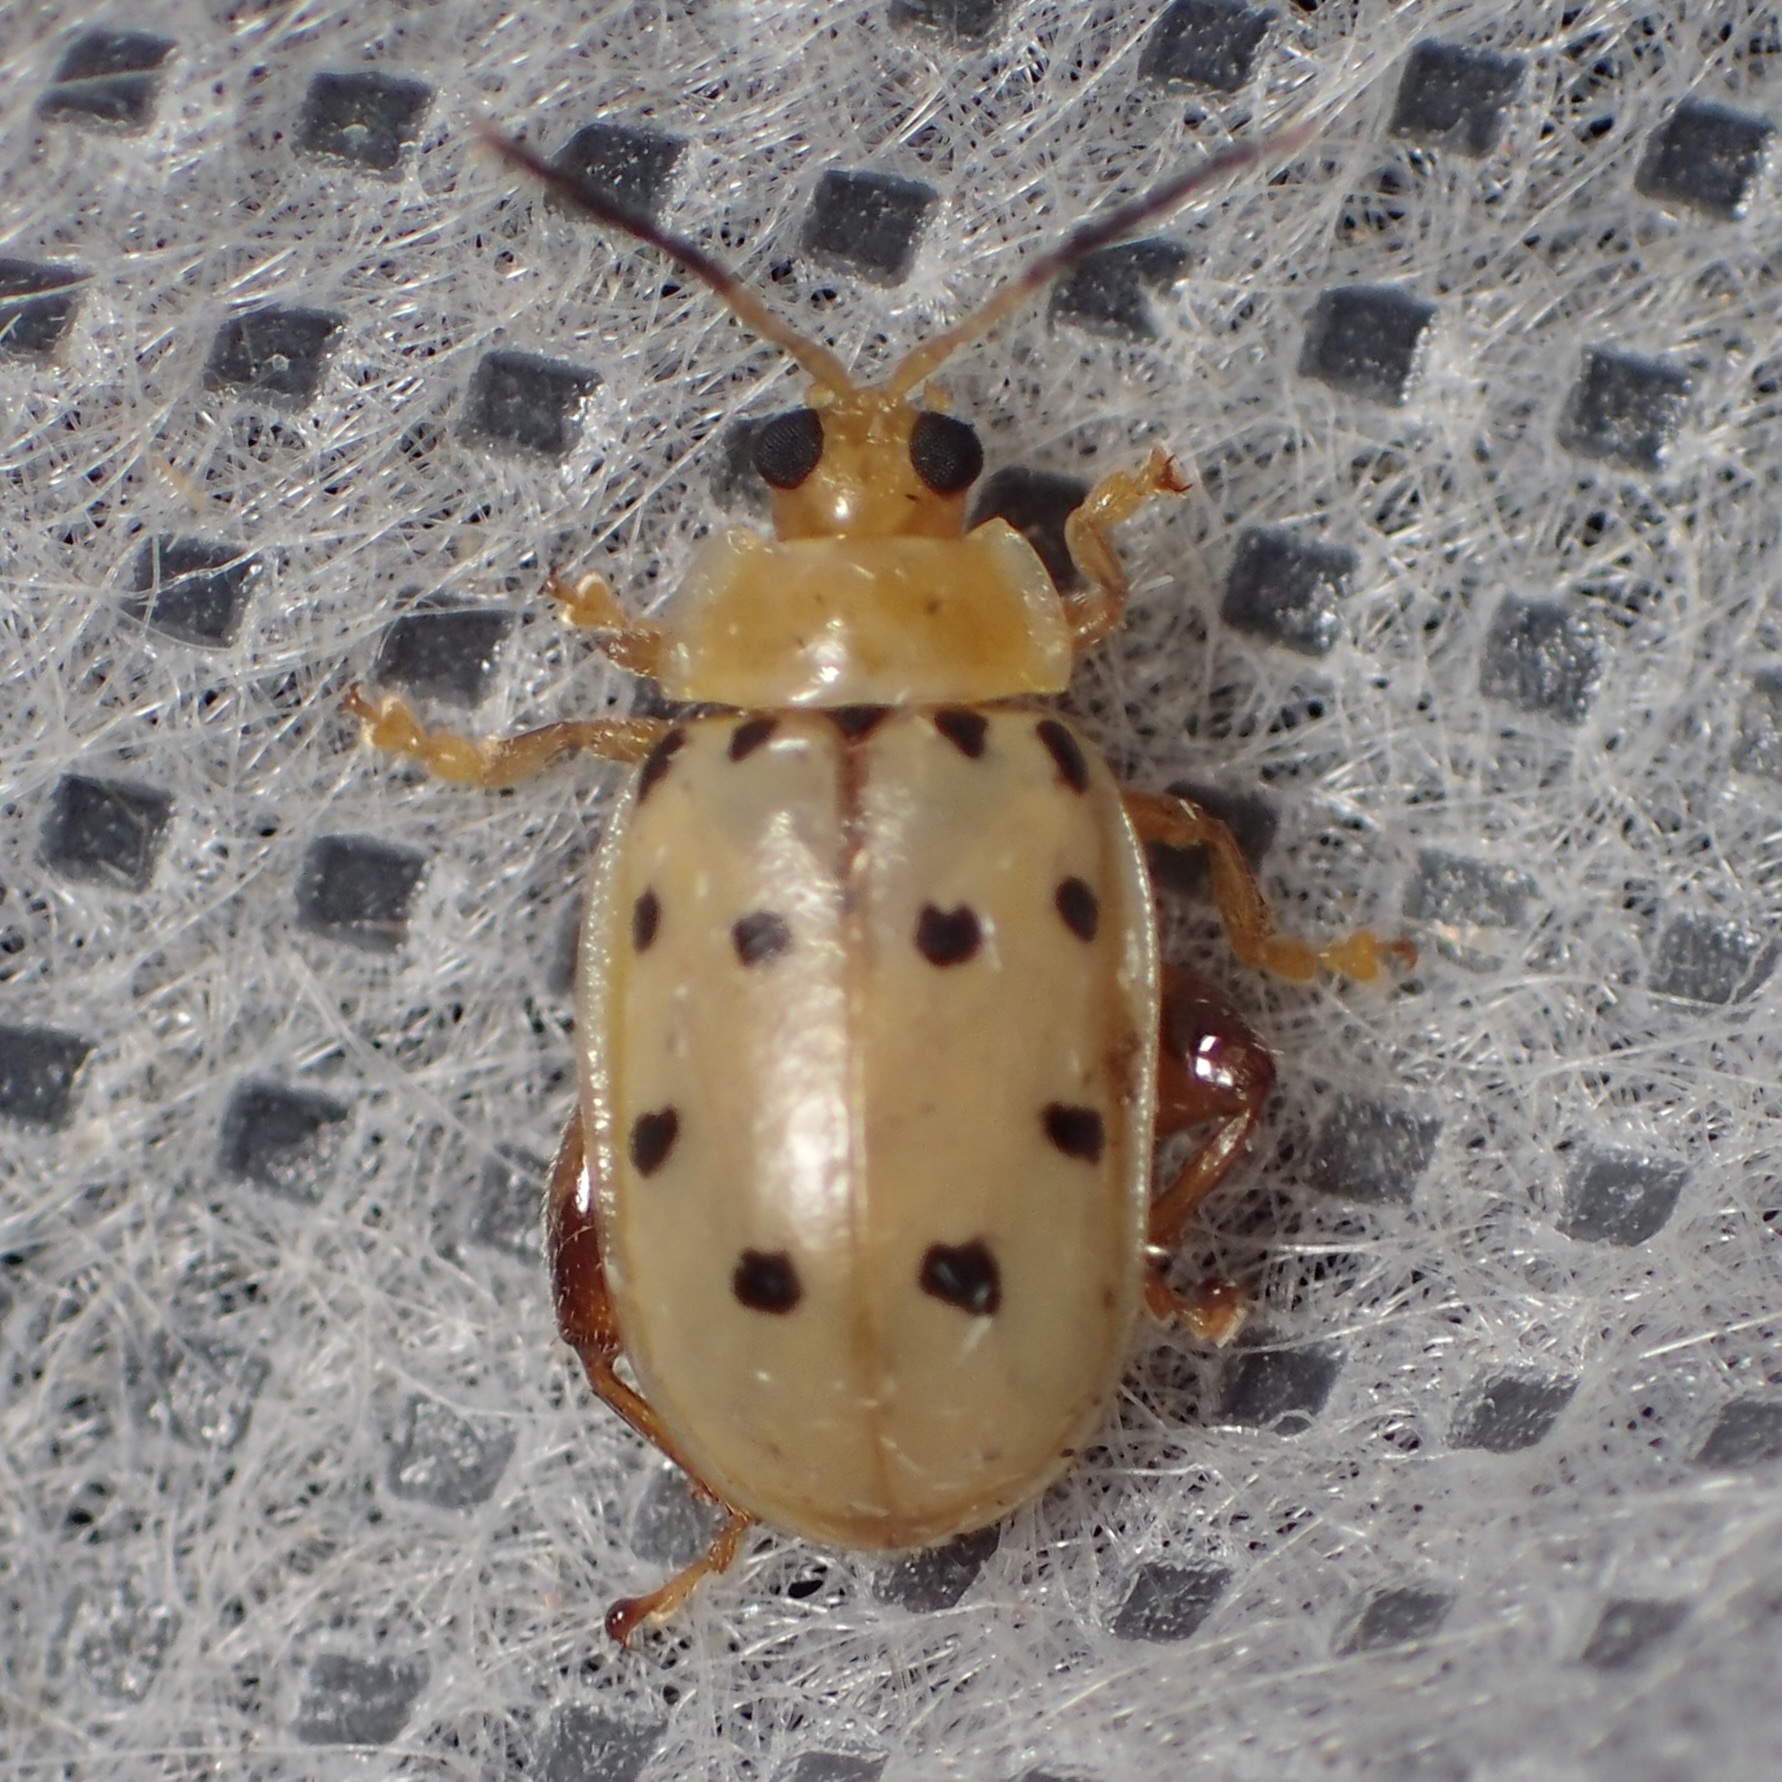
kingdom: Animalia
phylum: Arthropoda
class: Insecta
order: Coleoptera
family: Chrysomelidae
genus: Walterianella
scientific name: Walterianella
